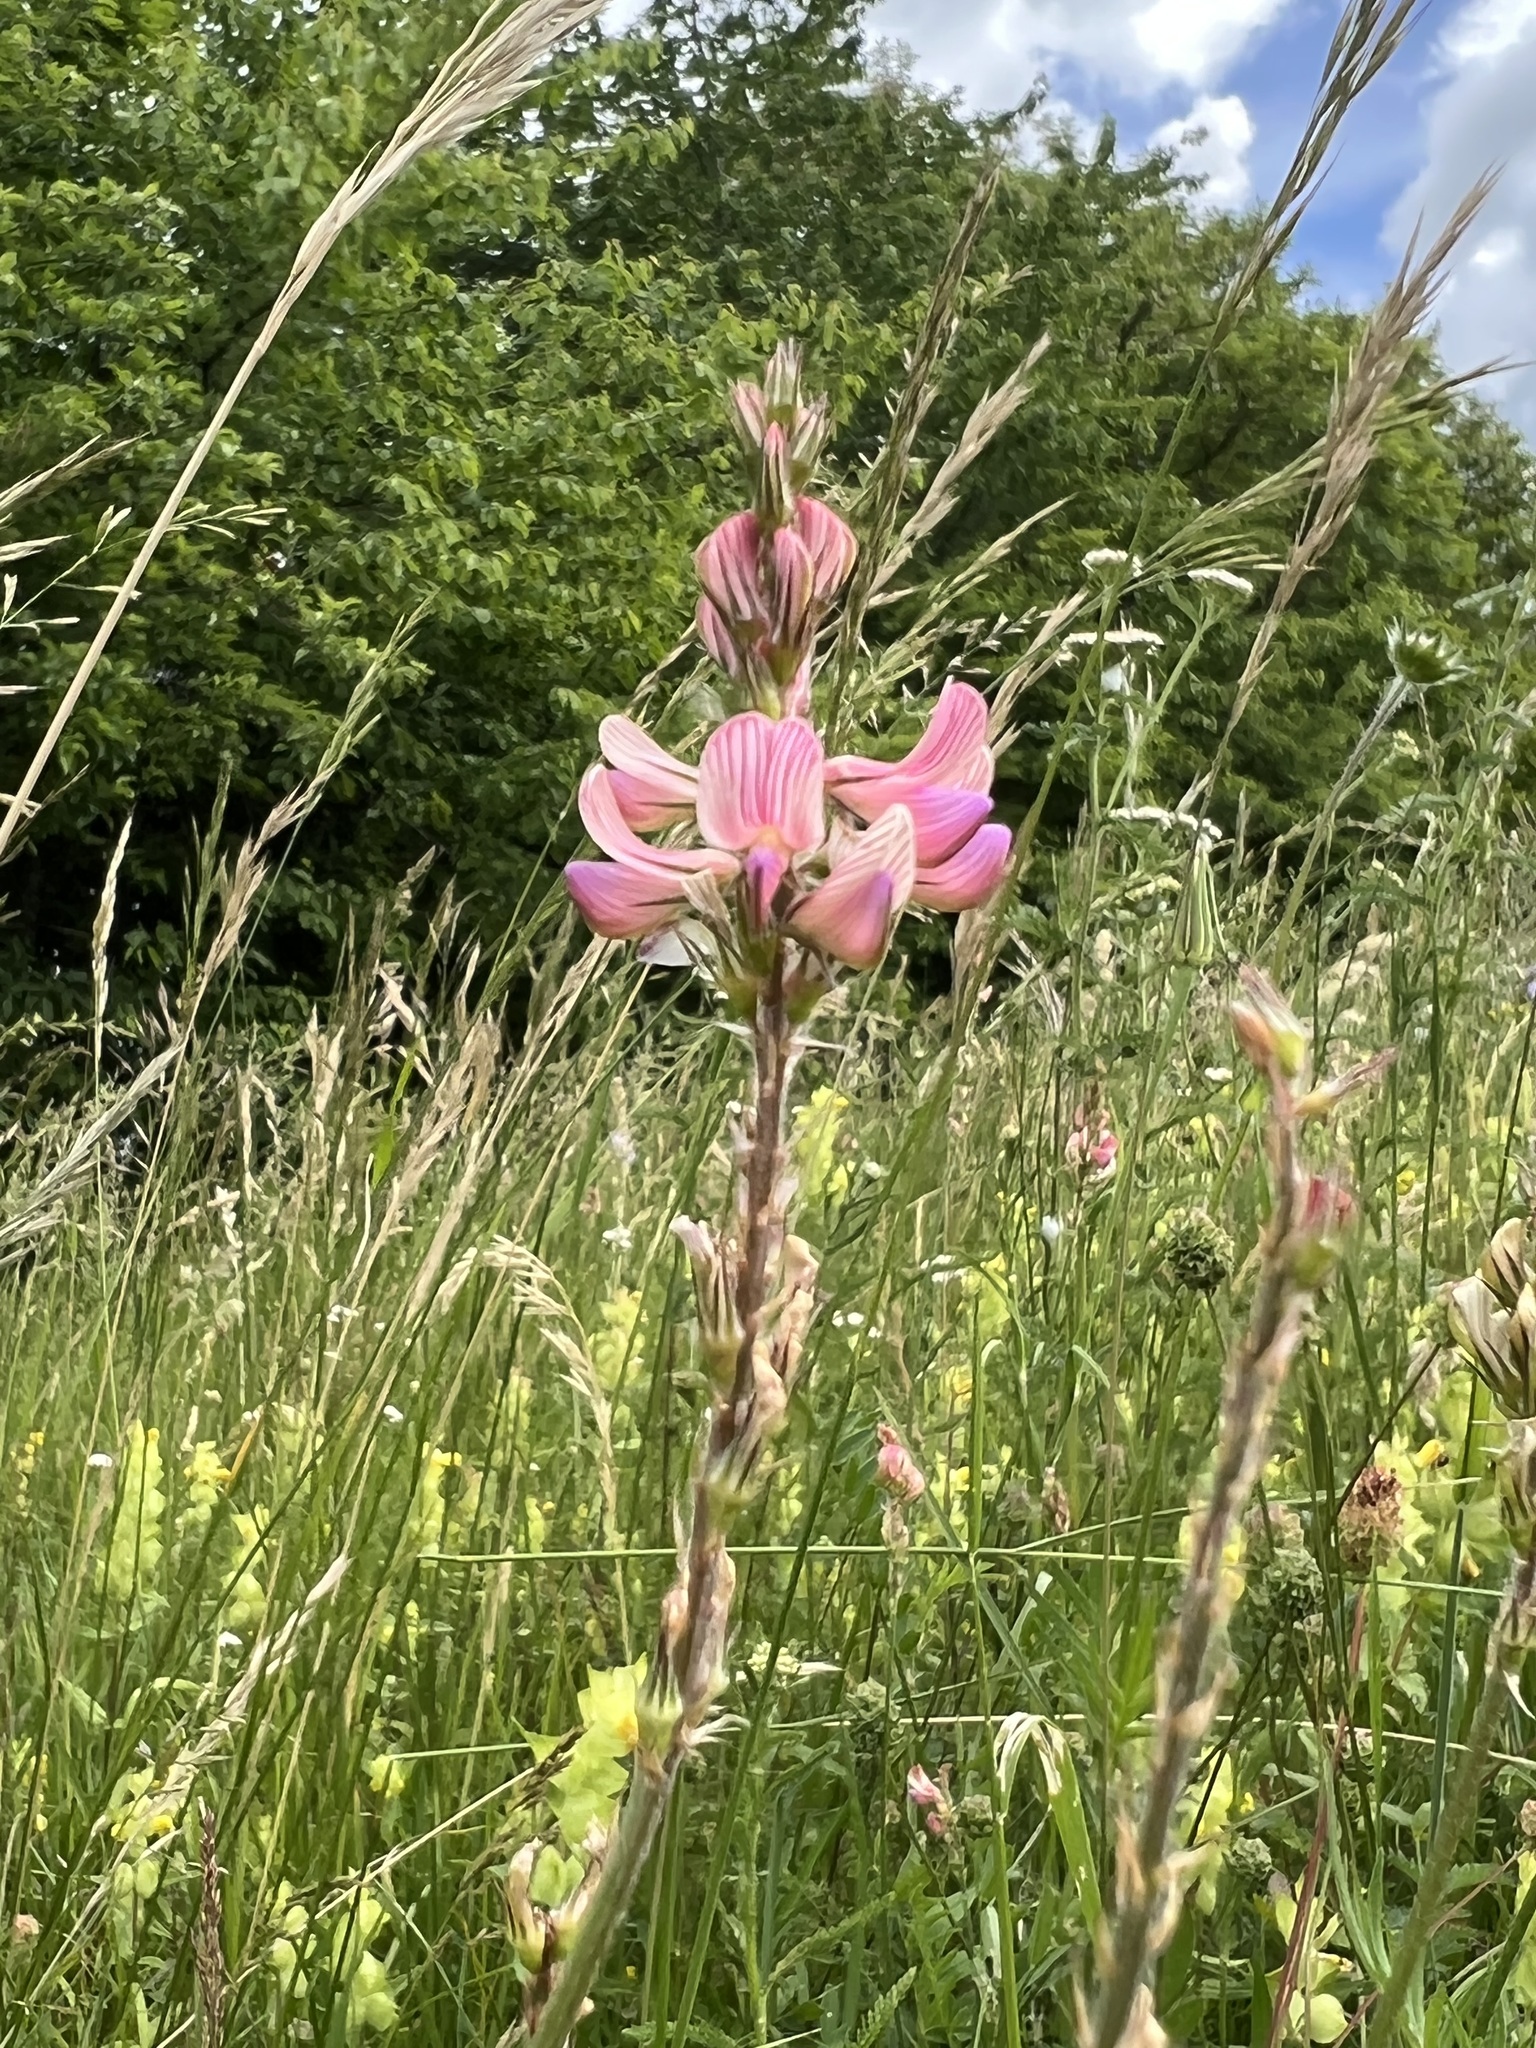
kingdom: Plantae
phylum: Tracheophyta
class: Magnoliopsida
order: Fabales
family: Fabaceae
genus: Onobrychis
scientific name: Onobrychis viciifolia
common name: Sainfoin
